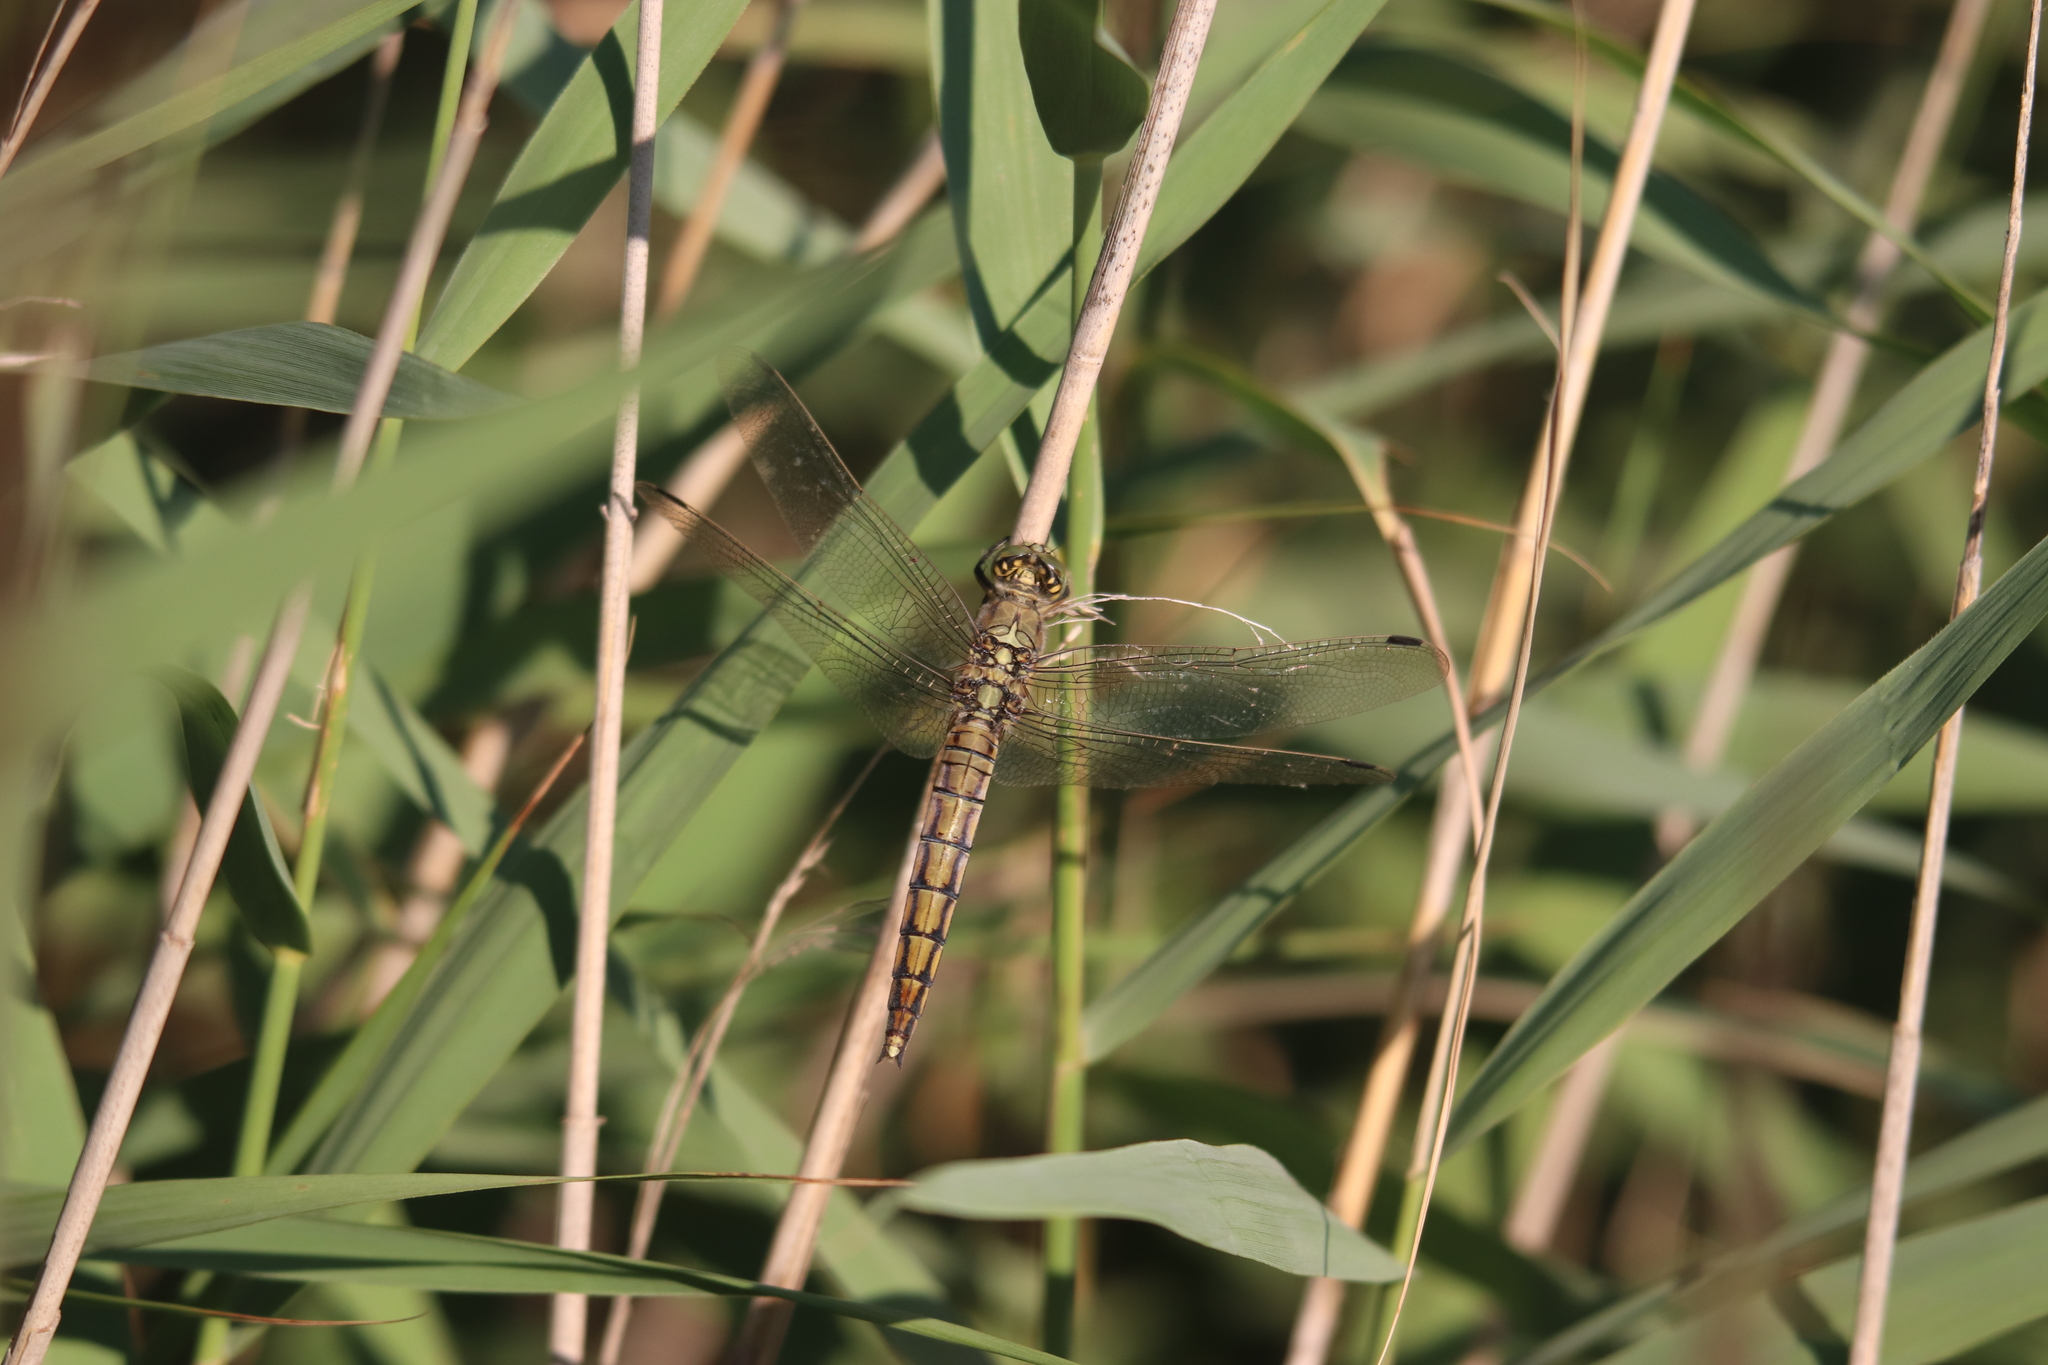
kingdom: Animalia
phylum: Arthropoda
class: Insecta
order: Odonata
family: Libellulidae
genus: Orthetrum
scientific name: Orthetrum cancellatum
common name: Black-tailed skimmer
